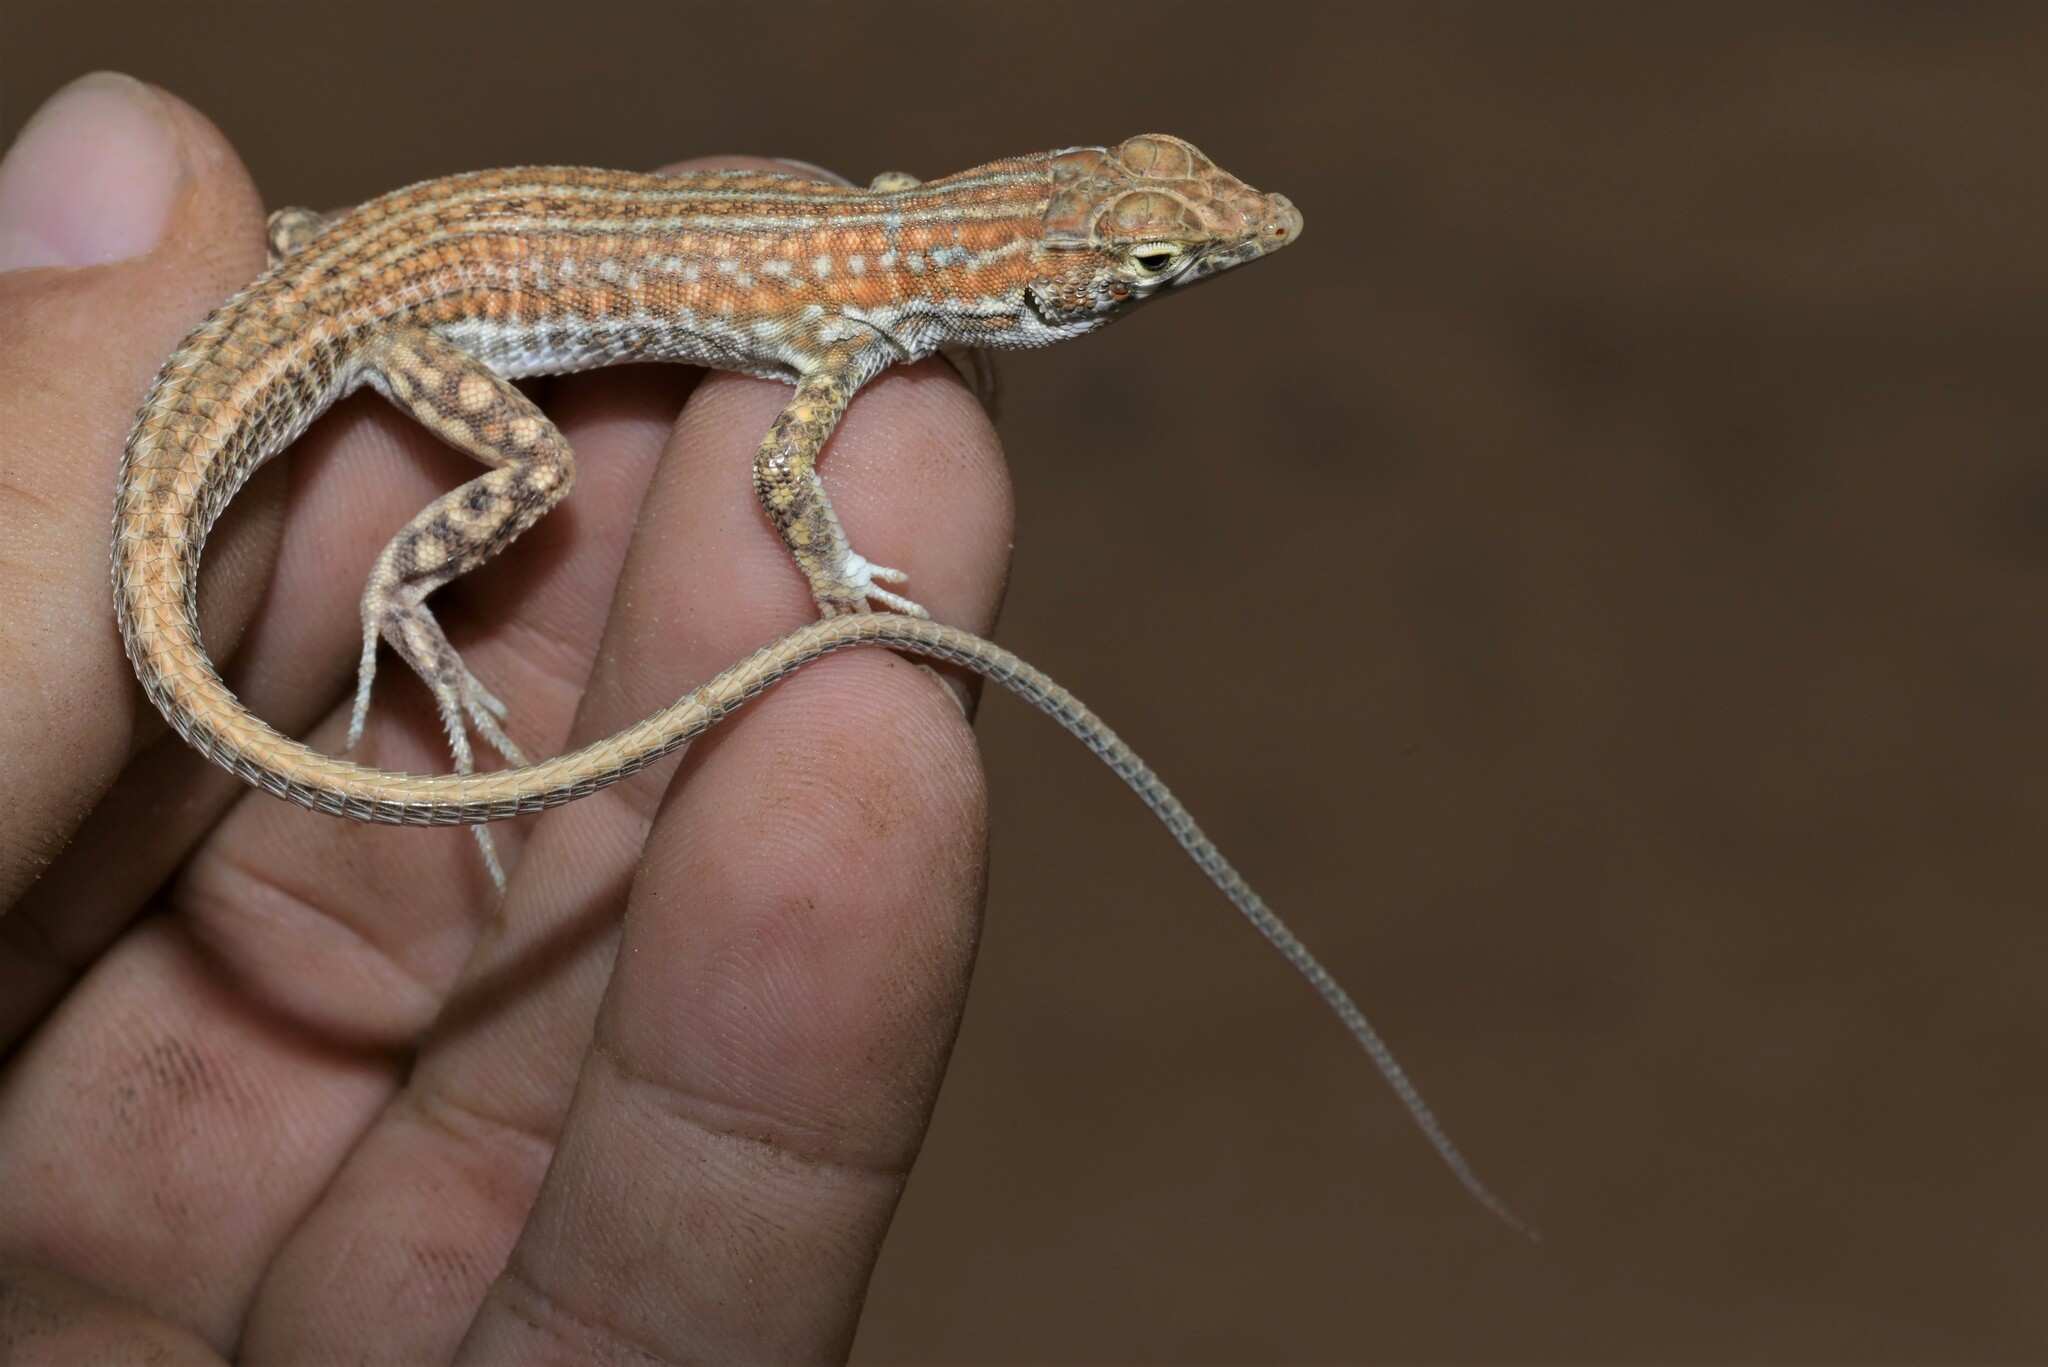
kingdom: Animalia
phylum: Chordata
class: Squamata
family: Lacertidae
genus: Acanthodactylus
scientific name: Acanthodactylus opheodurus
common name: Arnold's fringe-fingered lizard
